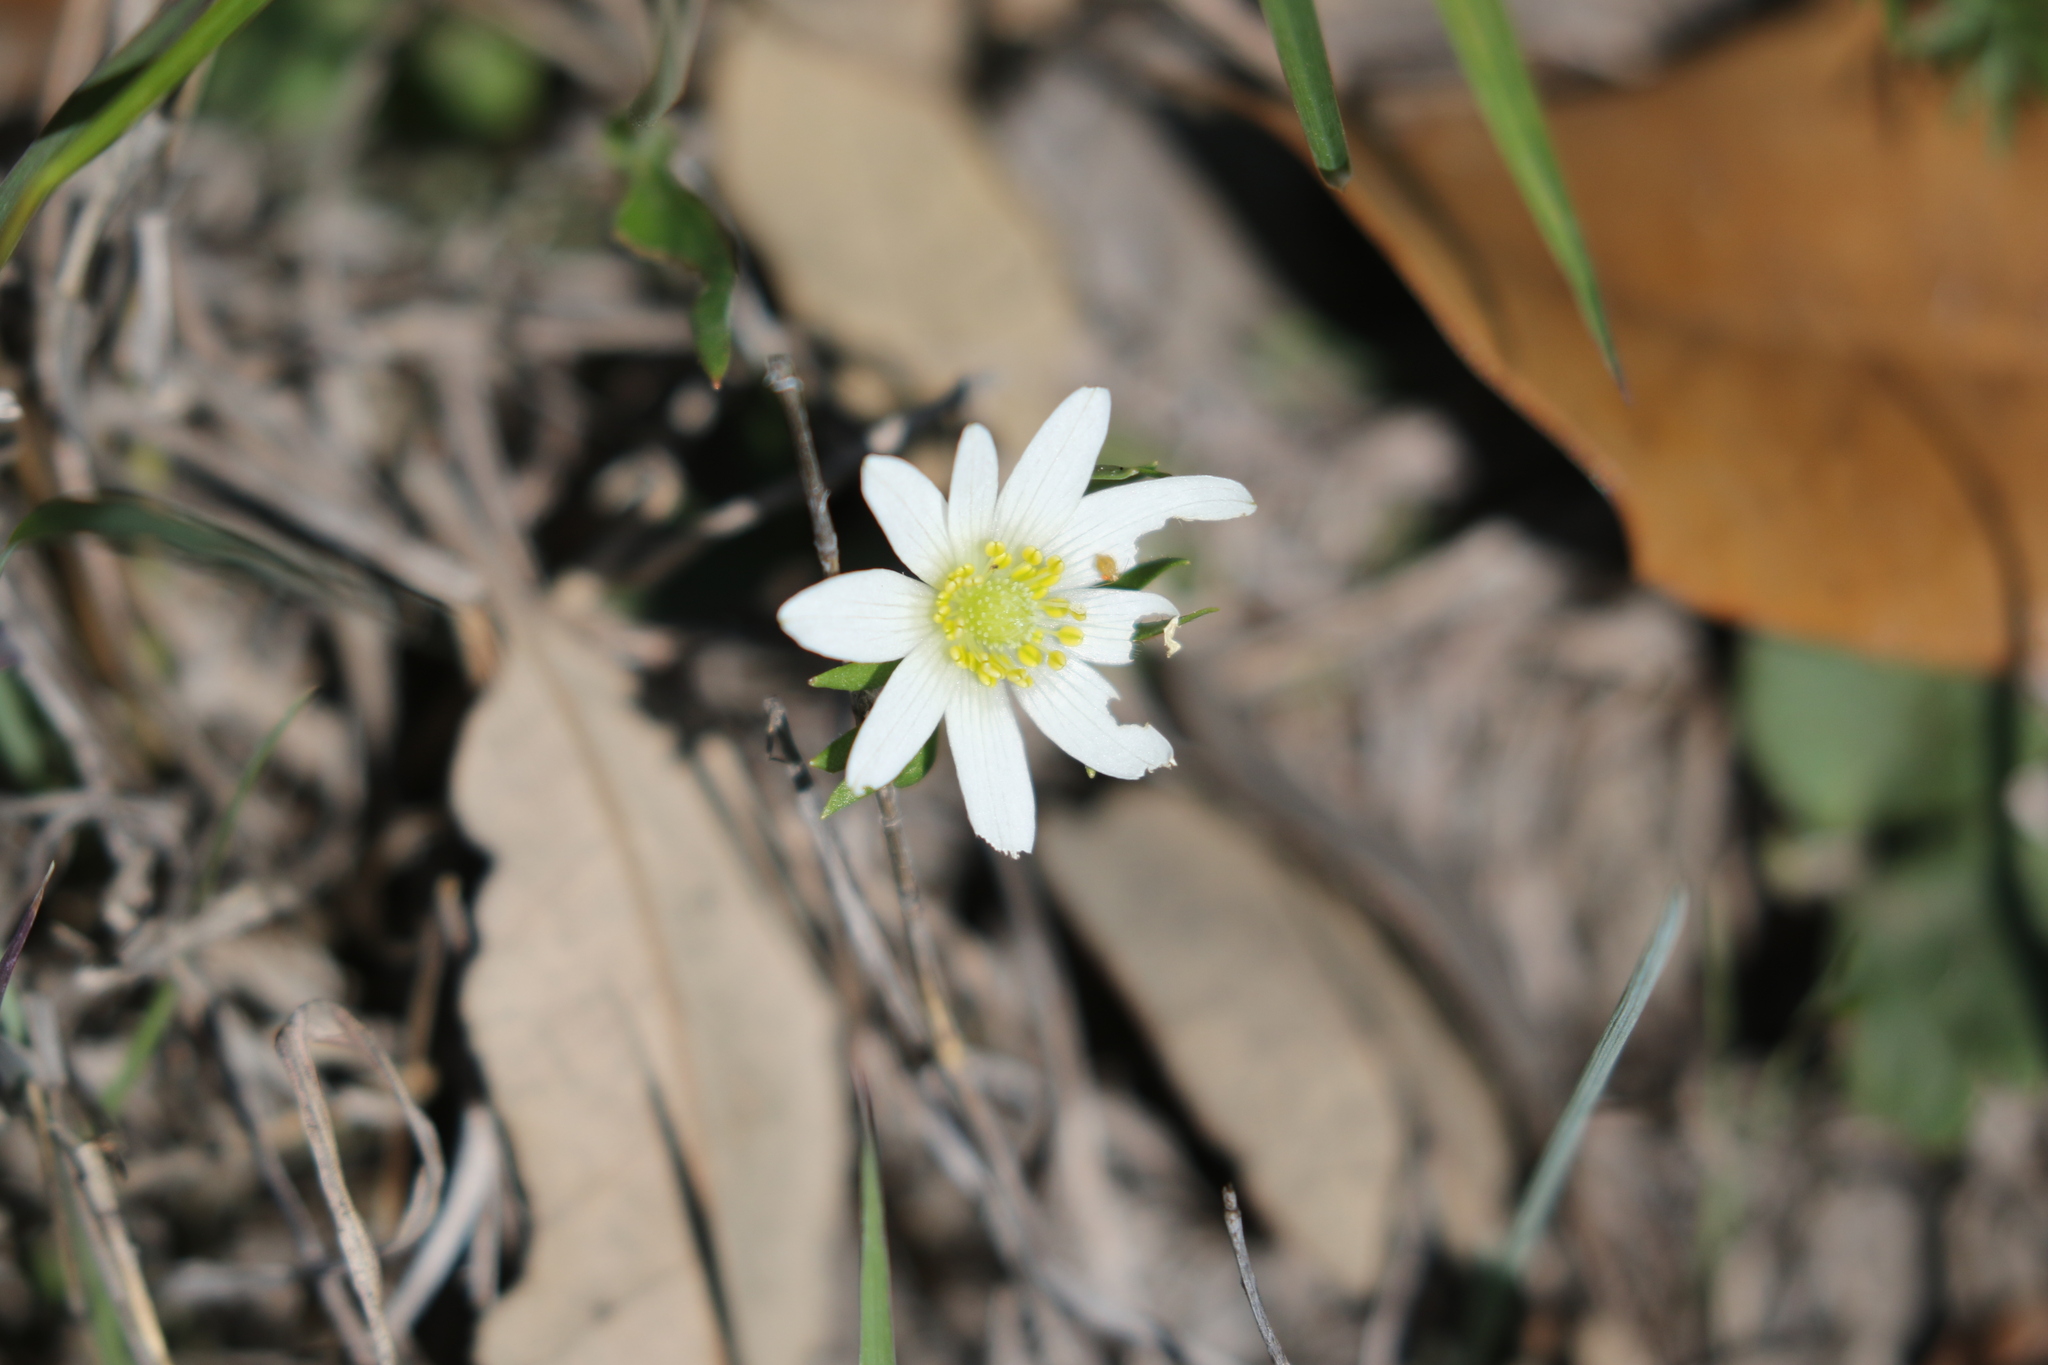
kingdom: Plantae
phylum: Tracheophyta
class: Magnoliopsida
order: Ranunculales
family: Ranunculaceae
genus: Anemone
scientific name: Anemone berlandieri
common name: Ten-petal anemone
